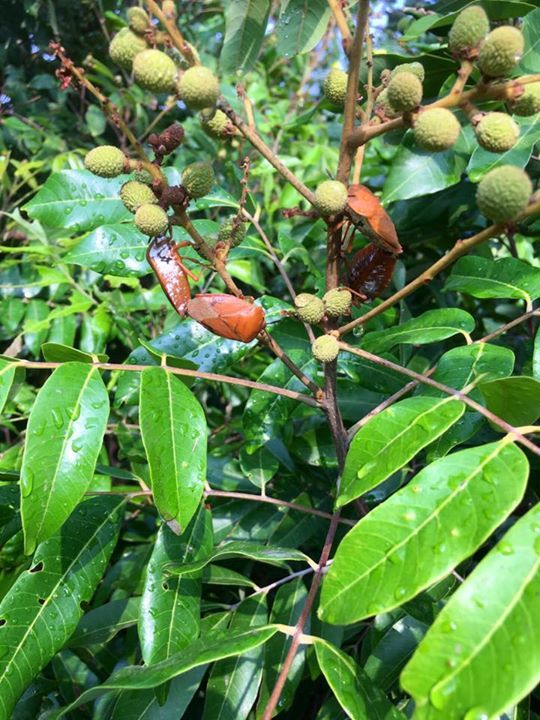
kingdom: Animalia
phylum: Arthropoda
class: Insecta
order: Hemiptera
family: Tessaratomidae
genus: Tessaratoma
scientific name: Tessaratoma papillosa
